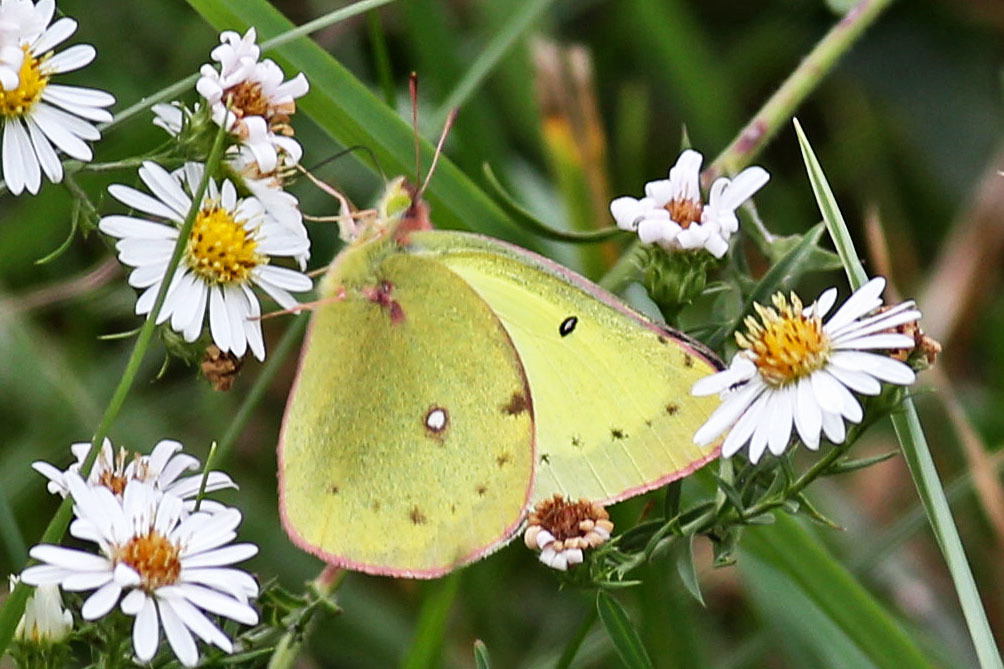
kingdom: Animalia
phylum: Arthropoda
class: Insecta
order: Lepidoptera
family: Pieridae
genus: Colias
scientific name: Colias philodice
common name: Clouded sulphur
